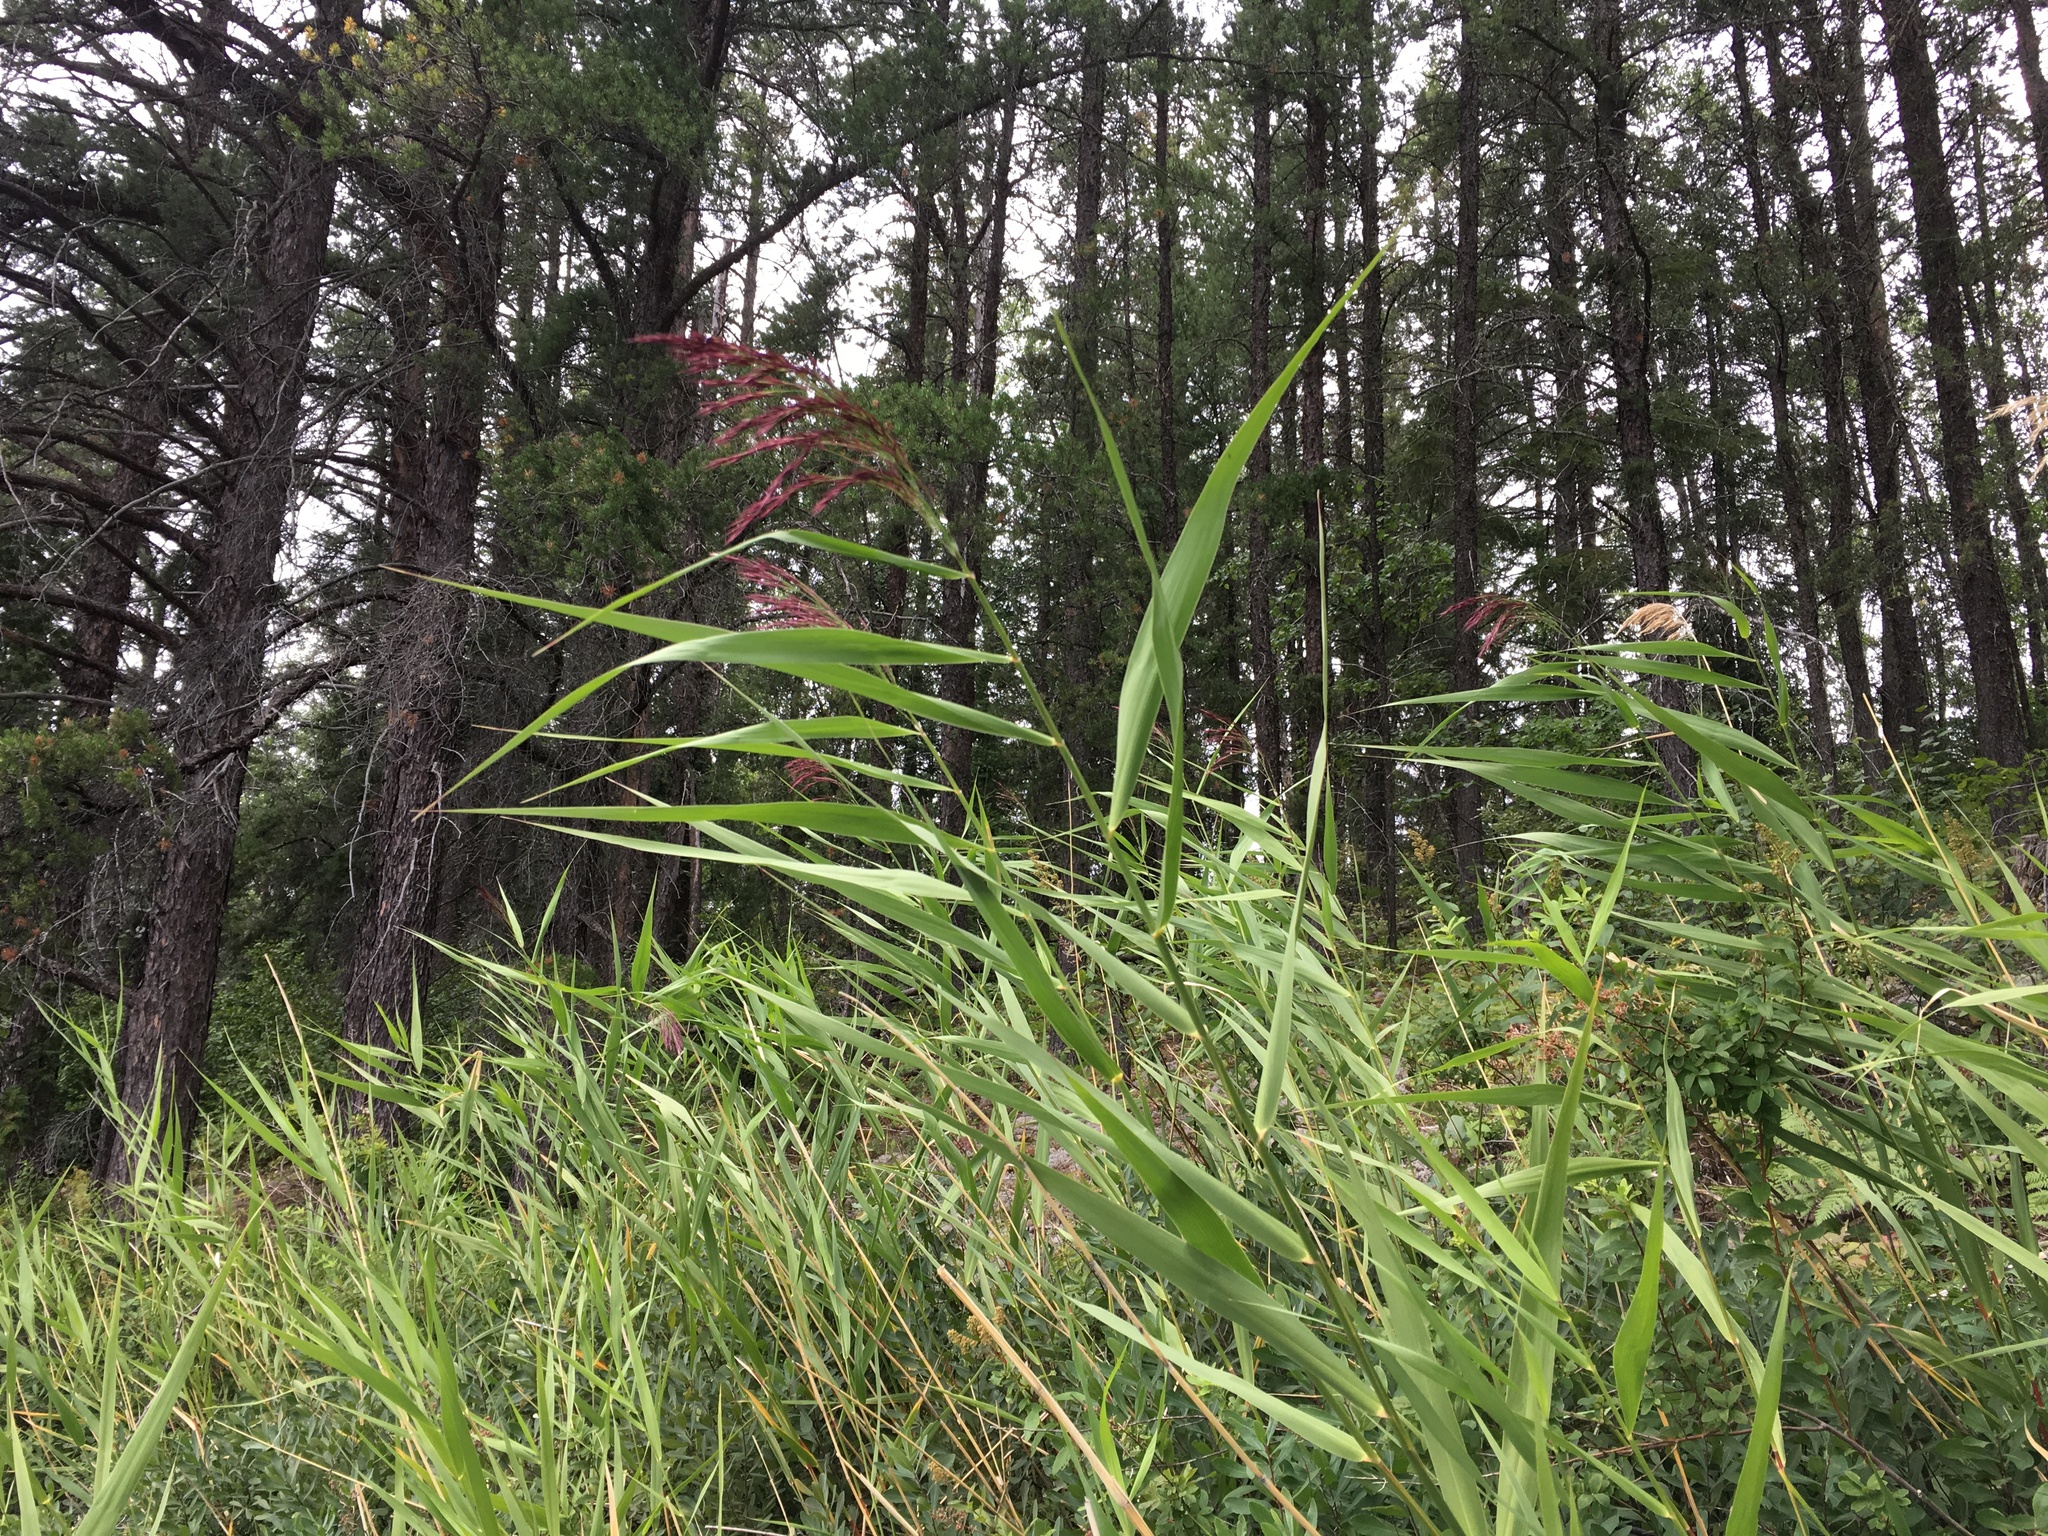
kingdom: Plantae
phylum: Tracheophyta
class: Liliopsida
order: Poales
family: Poaceae
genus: Phragmites
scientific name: Phragmites australis
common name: Common reed
